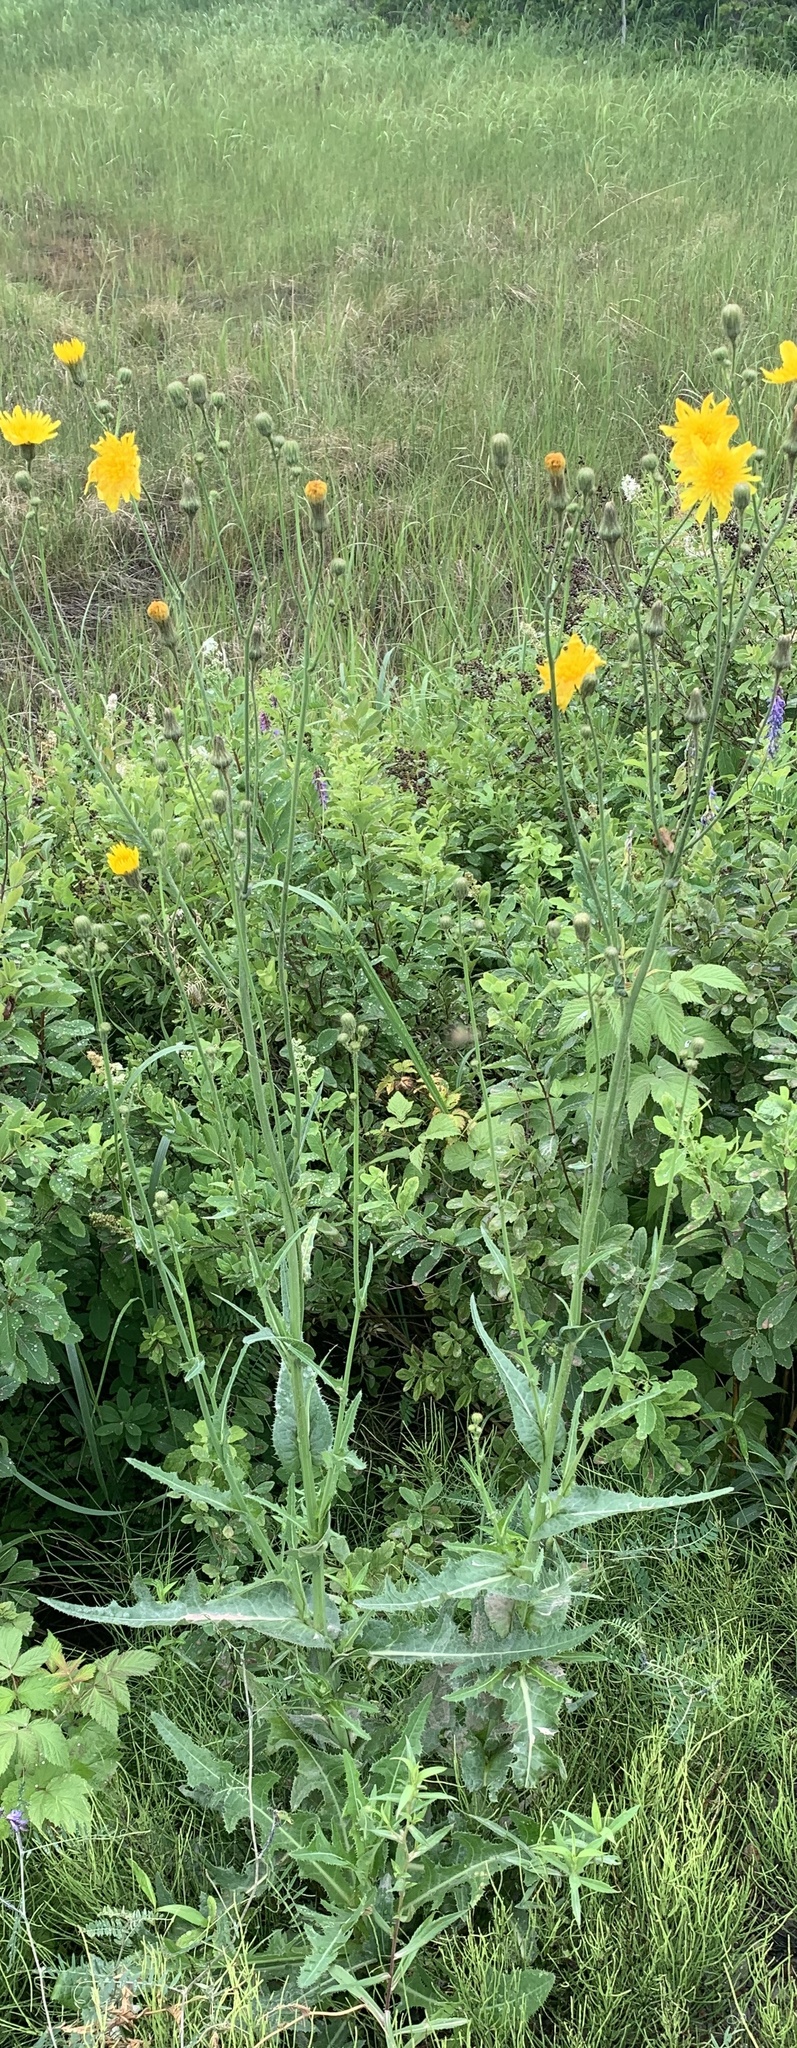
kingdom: Plantae
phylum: Tracheophyta
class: Magnoliopsida
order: Asterales
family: Asteraceae
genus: Sonchus
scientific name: Sonchus arvensis
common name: Perennial sow-thistle
